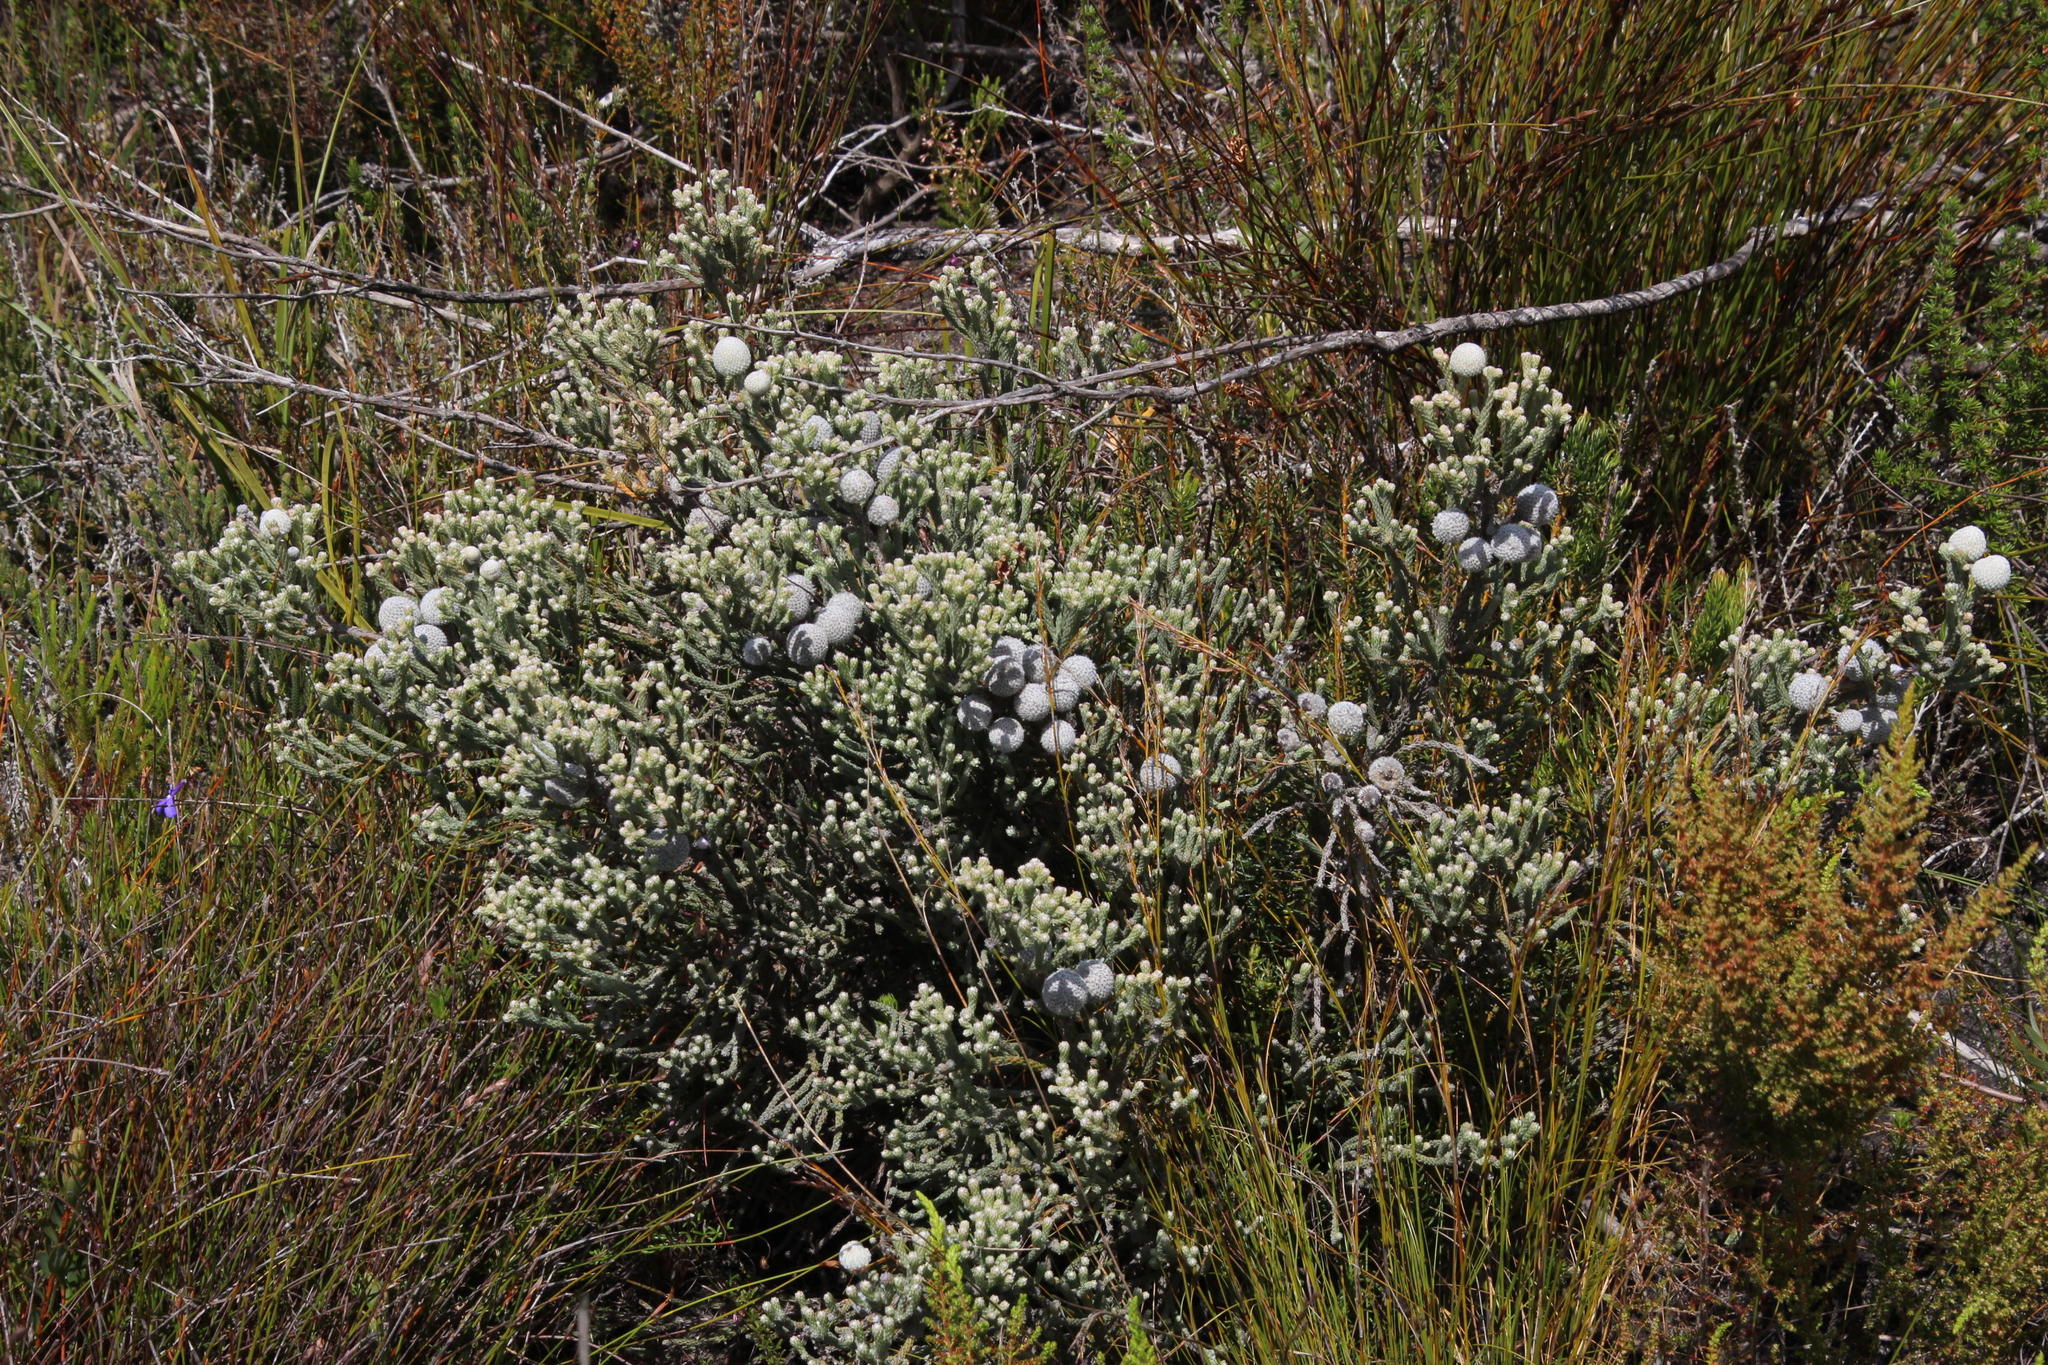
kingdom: Plantae
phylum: Tracheophyta
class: Magnoliopsida
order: Bruniales
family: Bruniaceae
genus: Brunia
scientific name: Brunia laevis
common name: Silver brunia
